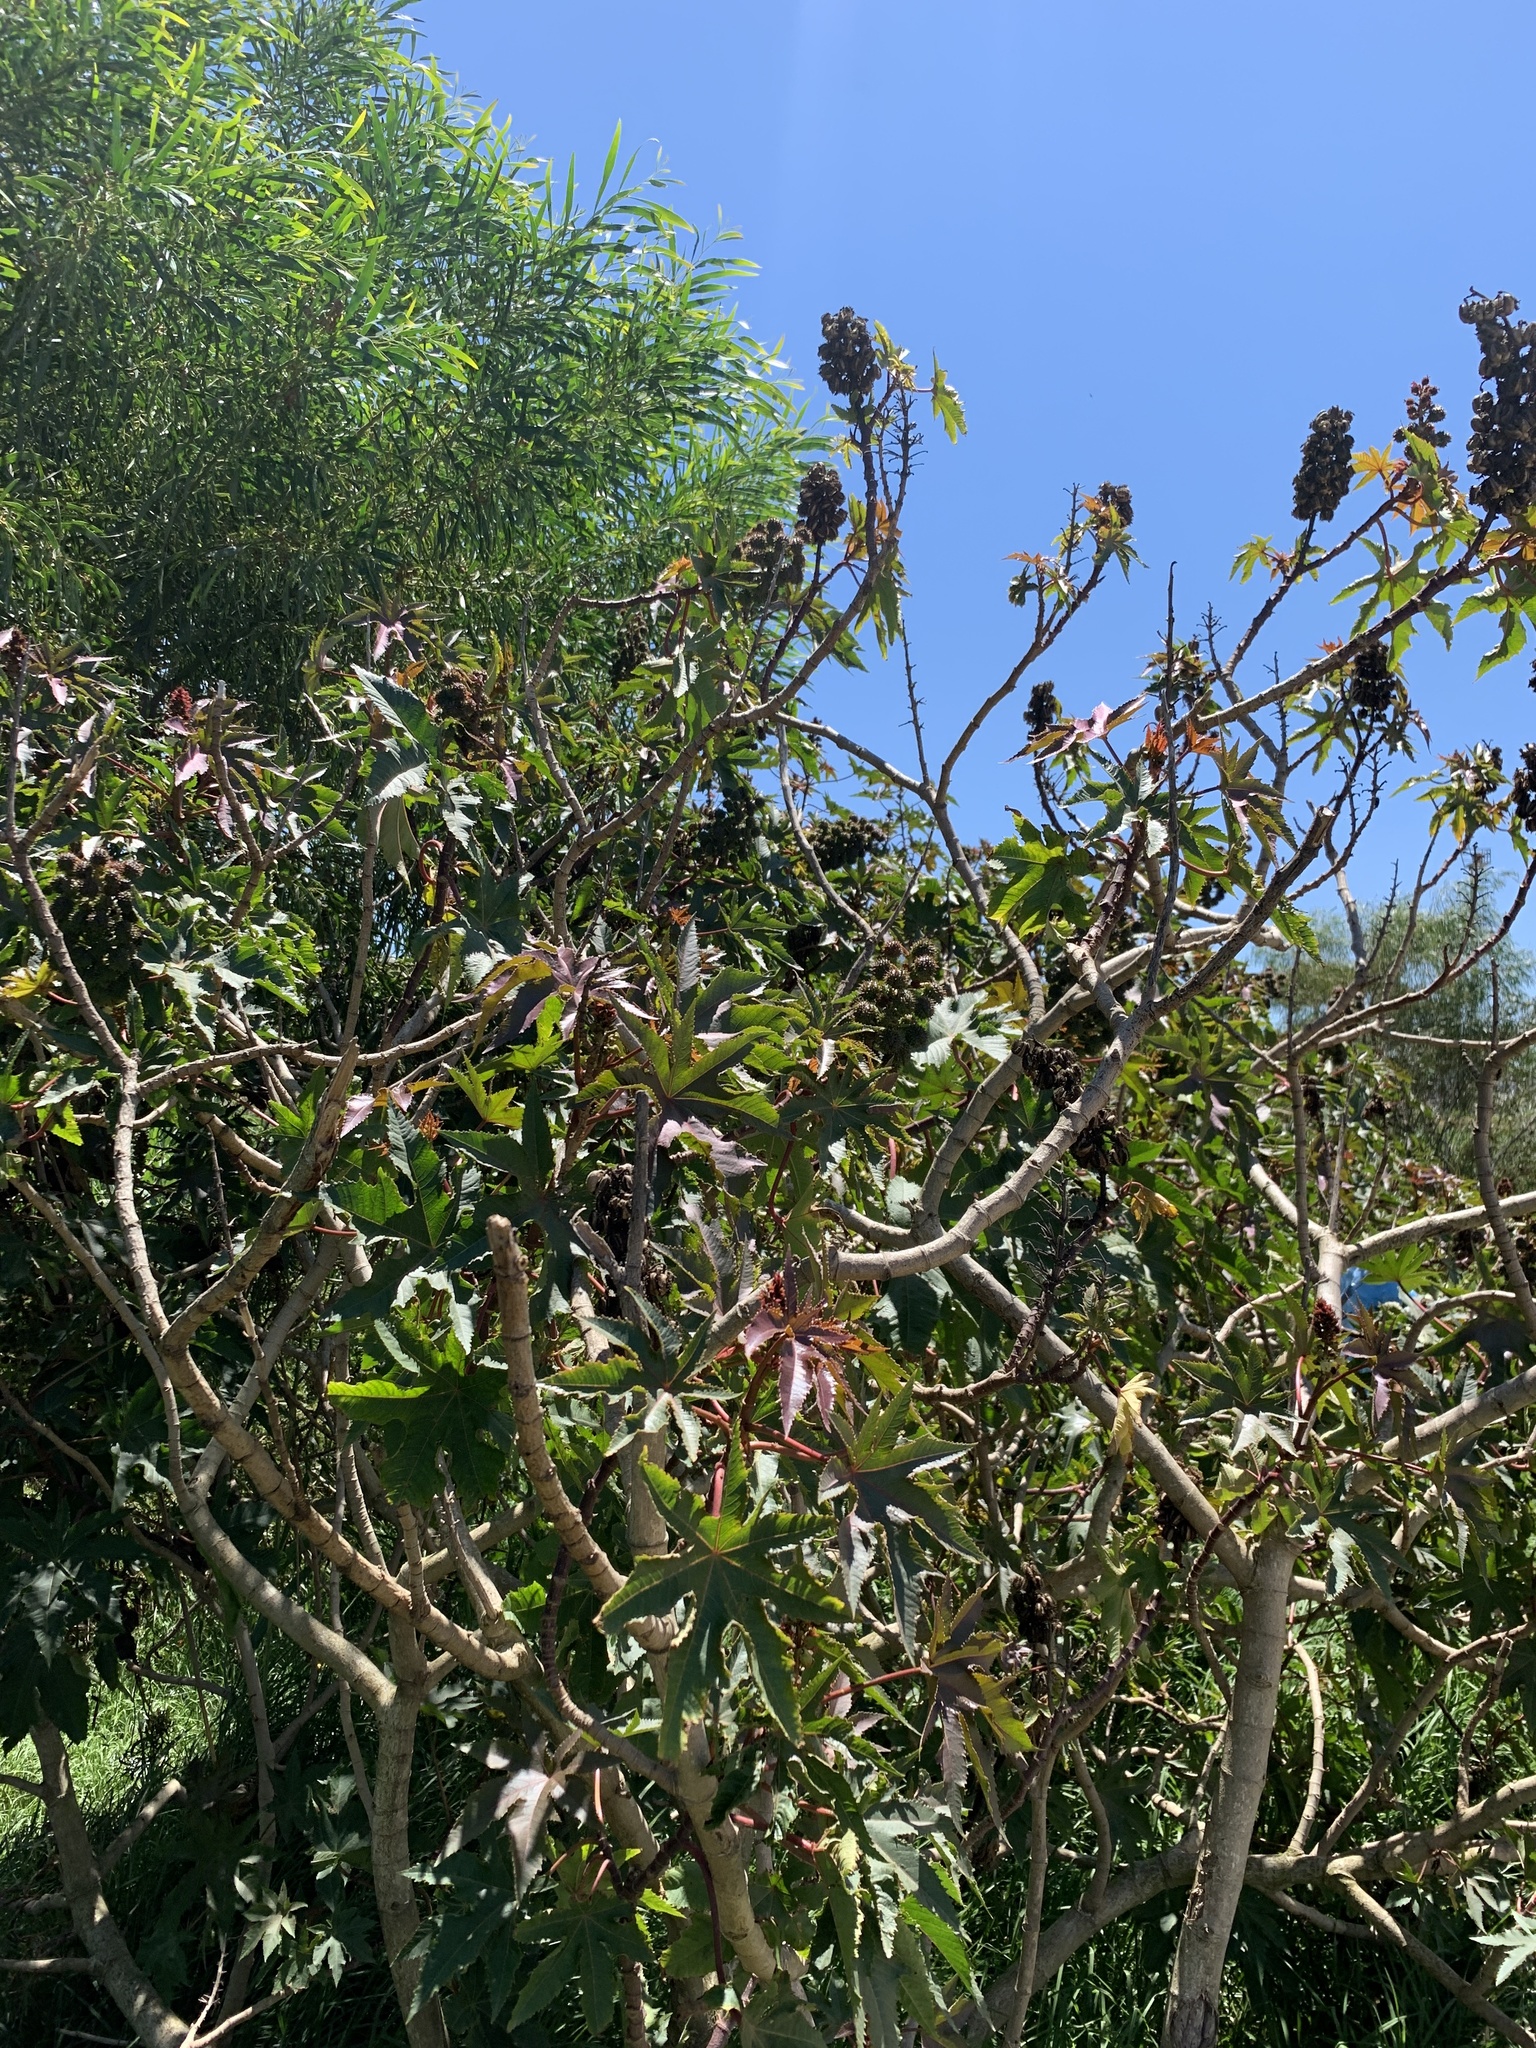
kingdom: Plantae
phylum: Tracheophyta
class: Magnoliopsida
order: Malpighiales
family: Euphorbiaceae
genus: Ricinus
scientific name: Ricinus communis
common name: Castor-oil-plant
